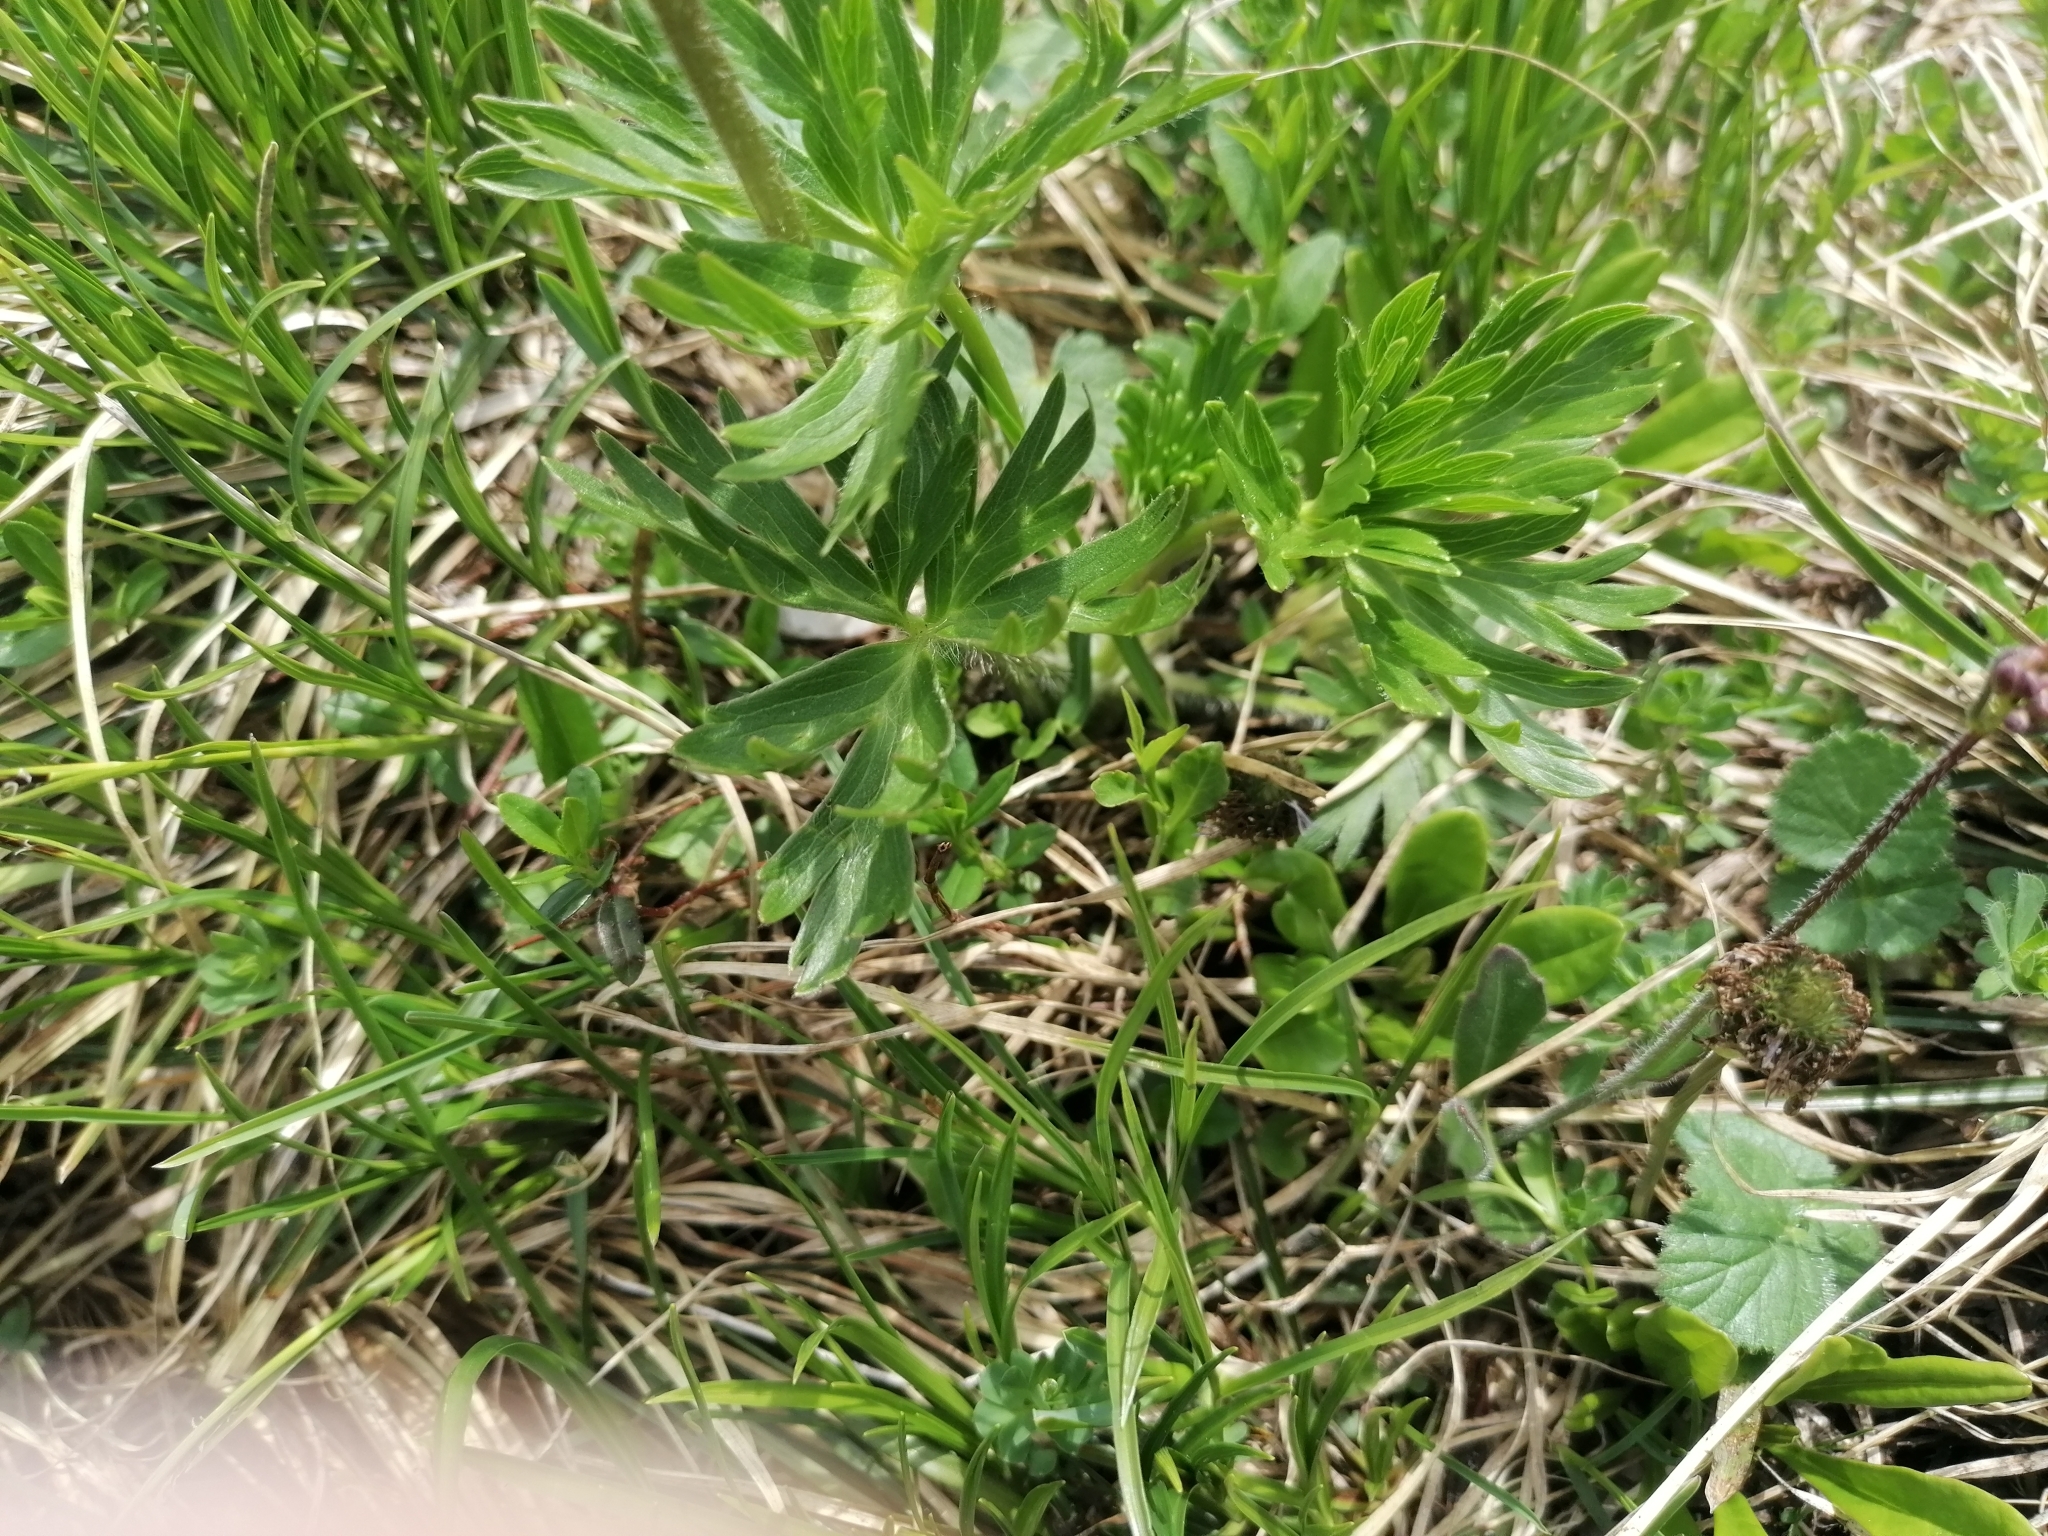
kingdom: Plantae
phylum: Tracheophyta
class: Magnoliopsida
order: Ranunculales
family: Ranunculaceae
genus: Anemonastrum
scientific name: Anemonastrum narcissiflorum
